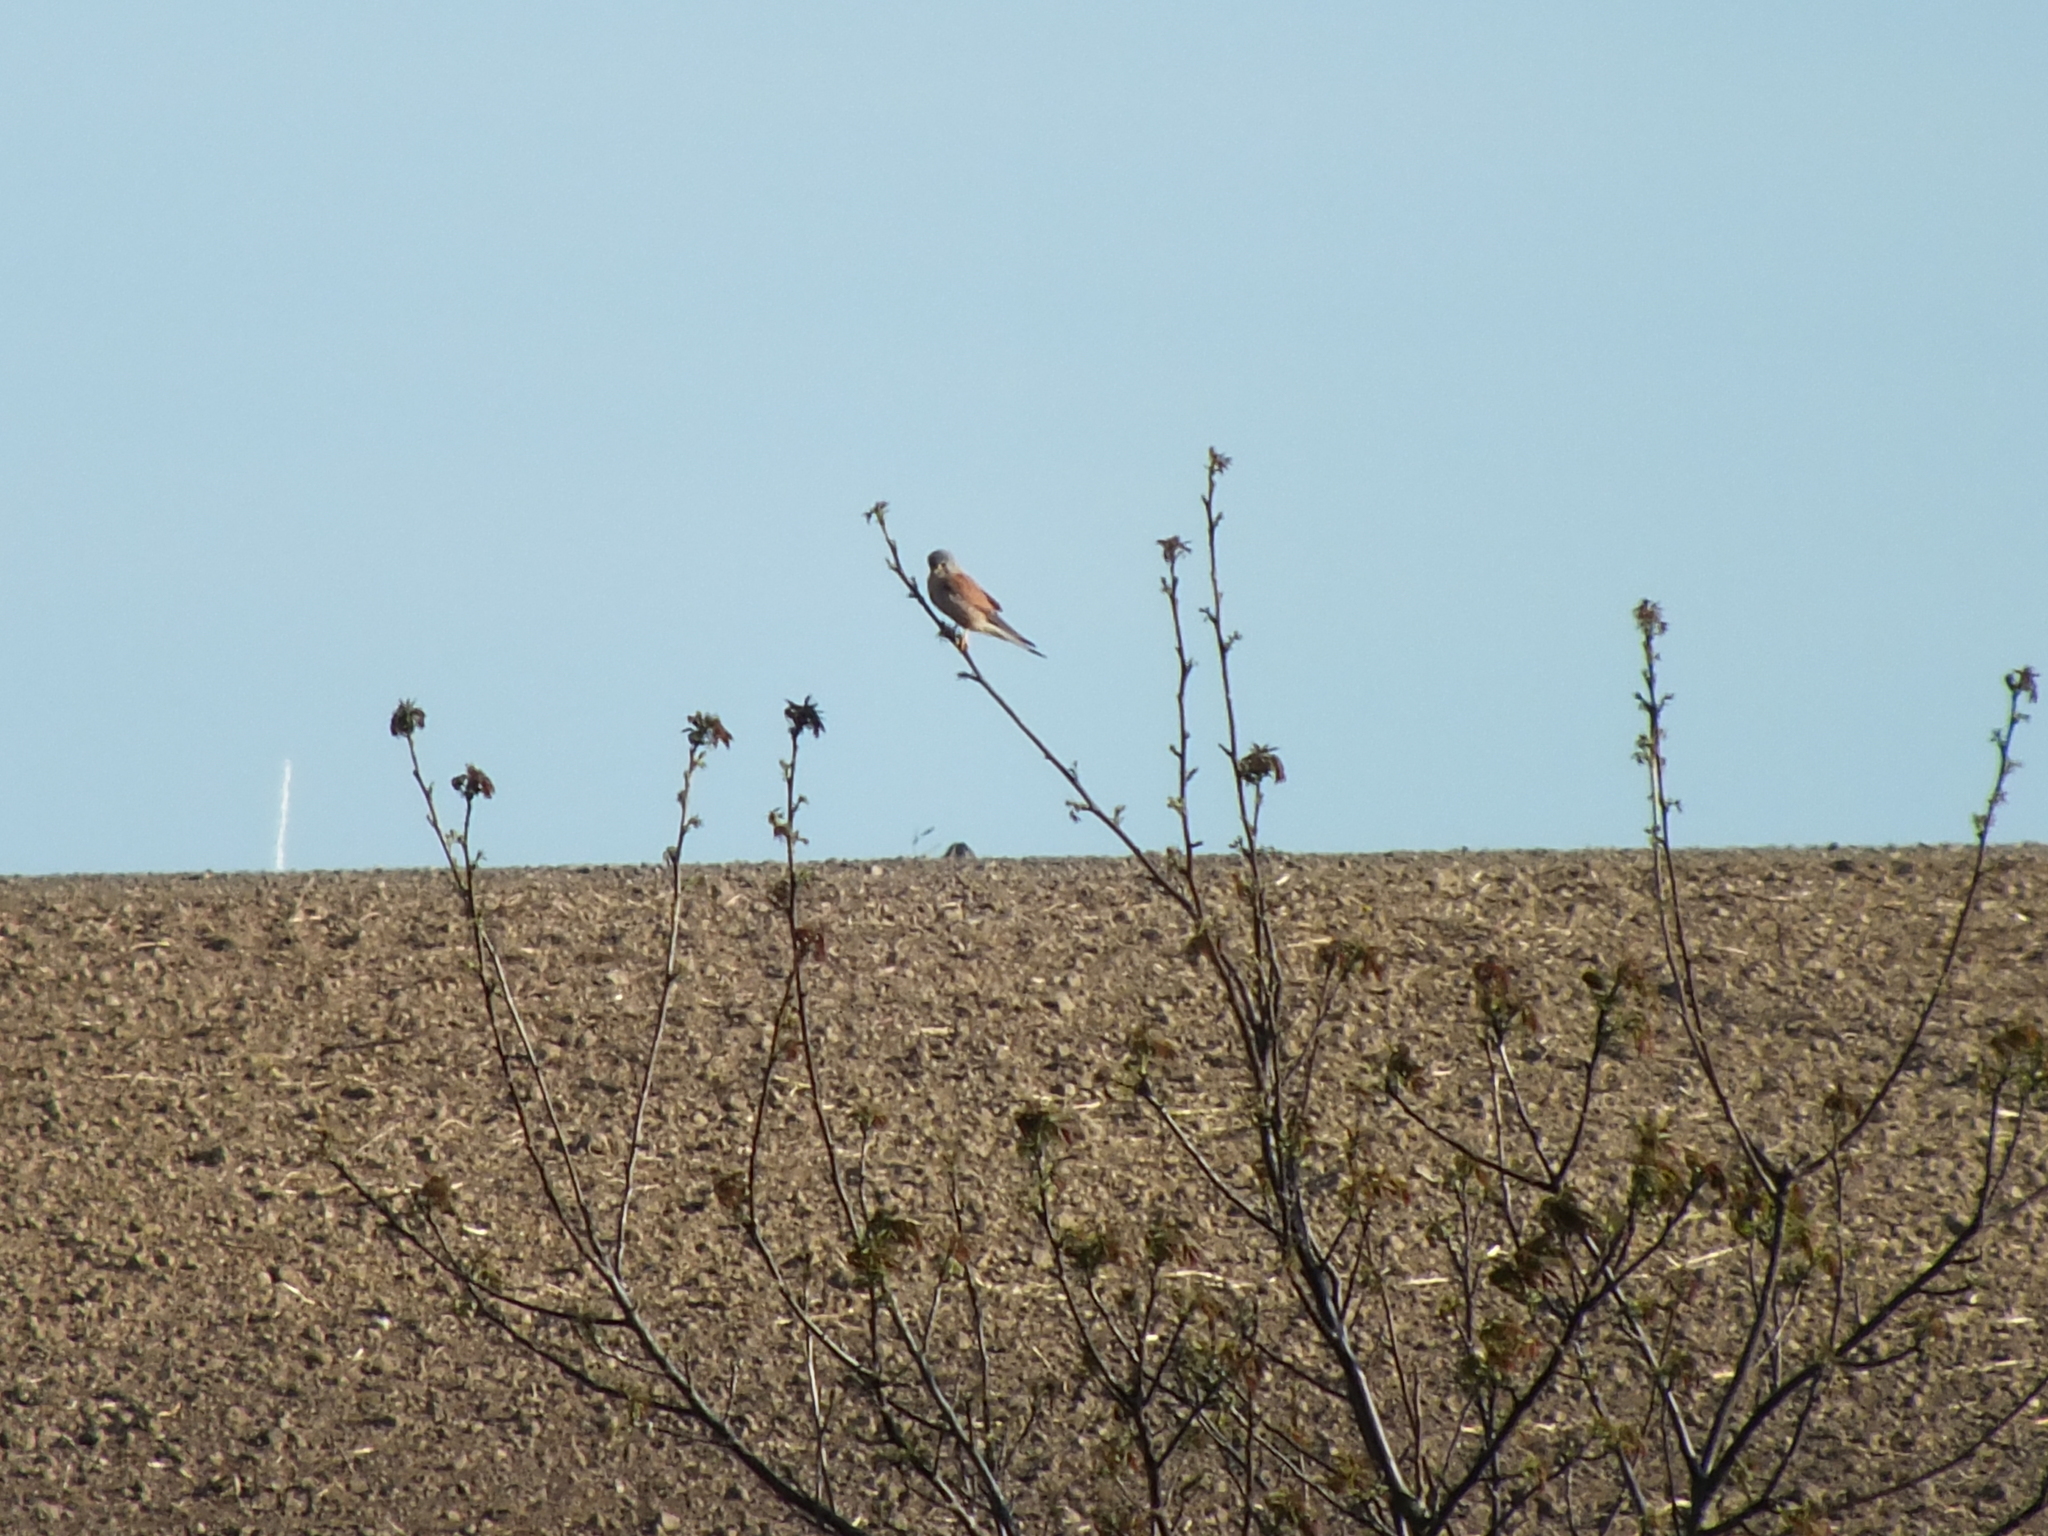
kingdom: Animalia
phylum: Chordata
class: Aves
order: Falconiformes
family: Falconidae
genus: Falco
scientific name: Falco tinnunculus
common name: Common kestrel
